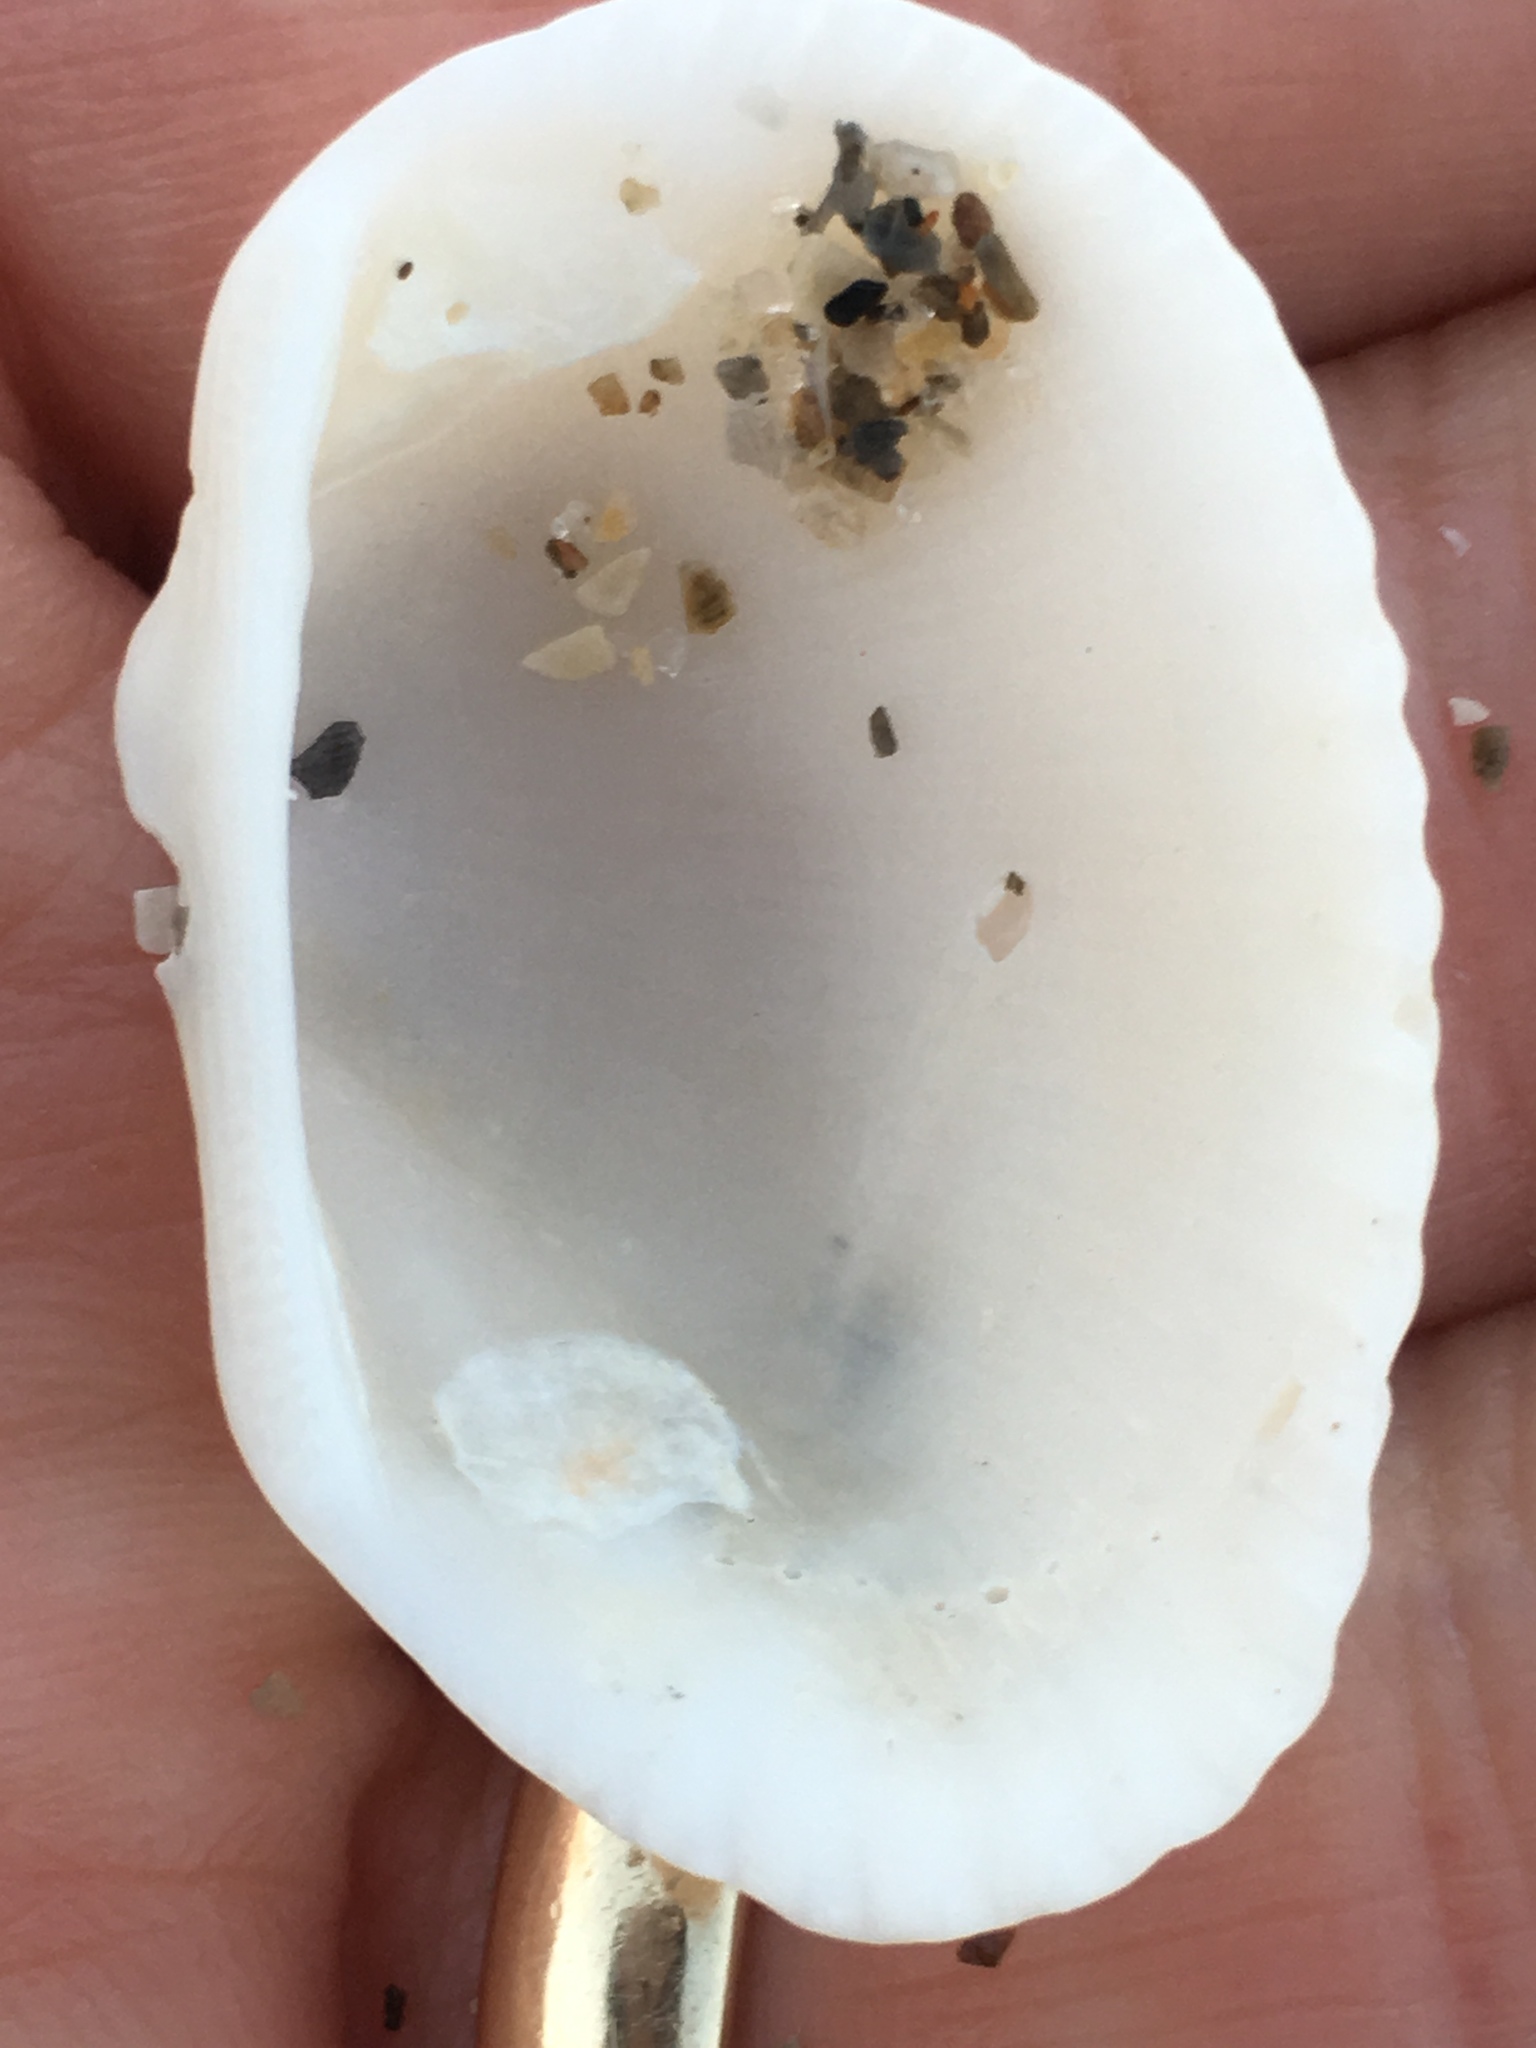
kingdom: Animalia
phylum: Mollusca
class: Bivalvia
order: Arcida
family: Arcidae
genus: Anadara
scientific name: Anadara transversa
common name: Transverse ark
